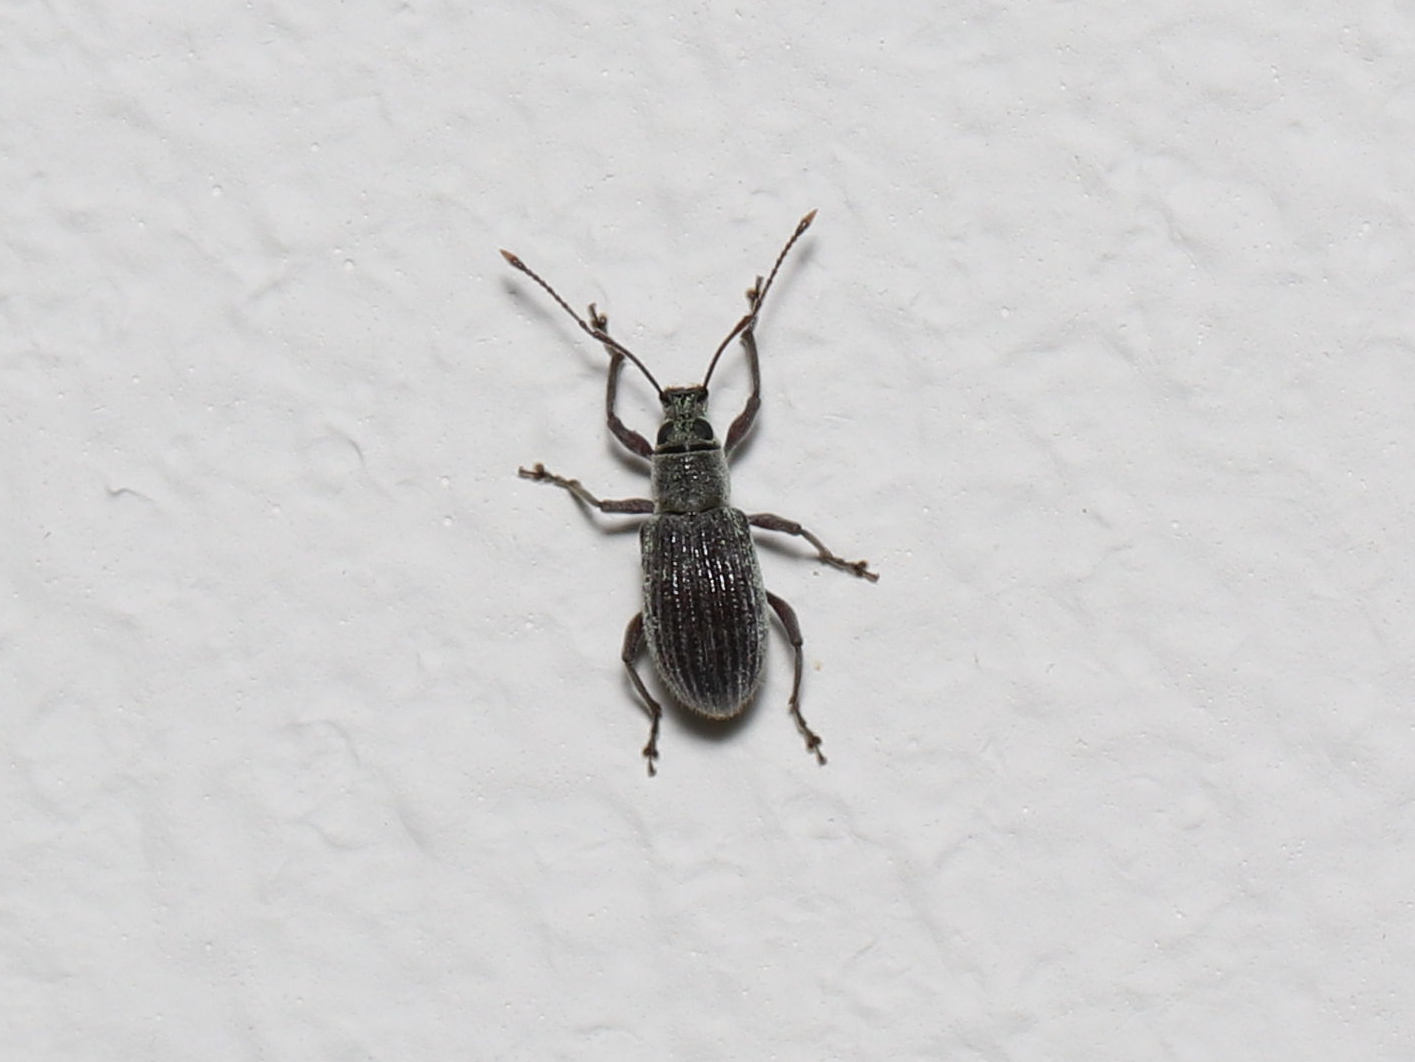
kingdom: Animalia
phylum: Arthropoda
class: Insecta
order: Coleoptera
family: Curculionidae
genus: Cyrtepistomus
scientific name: Cyrtepistomus castaneus
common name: Weevil
